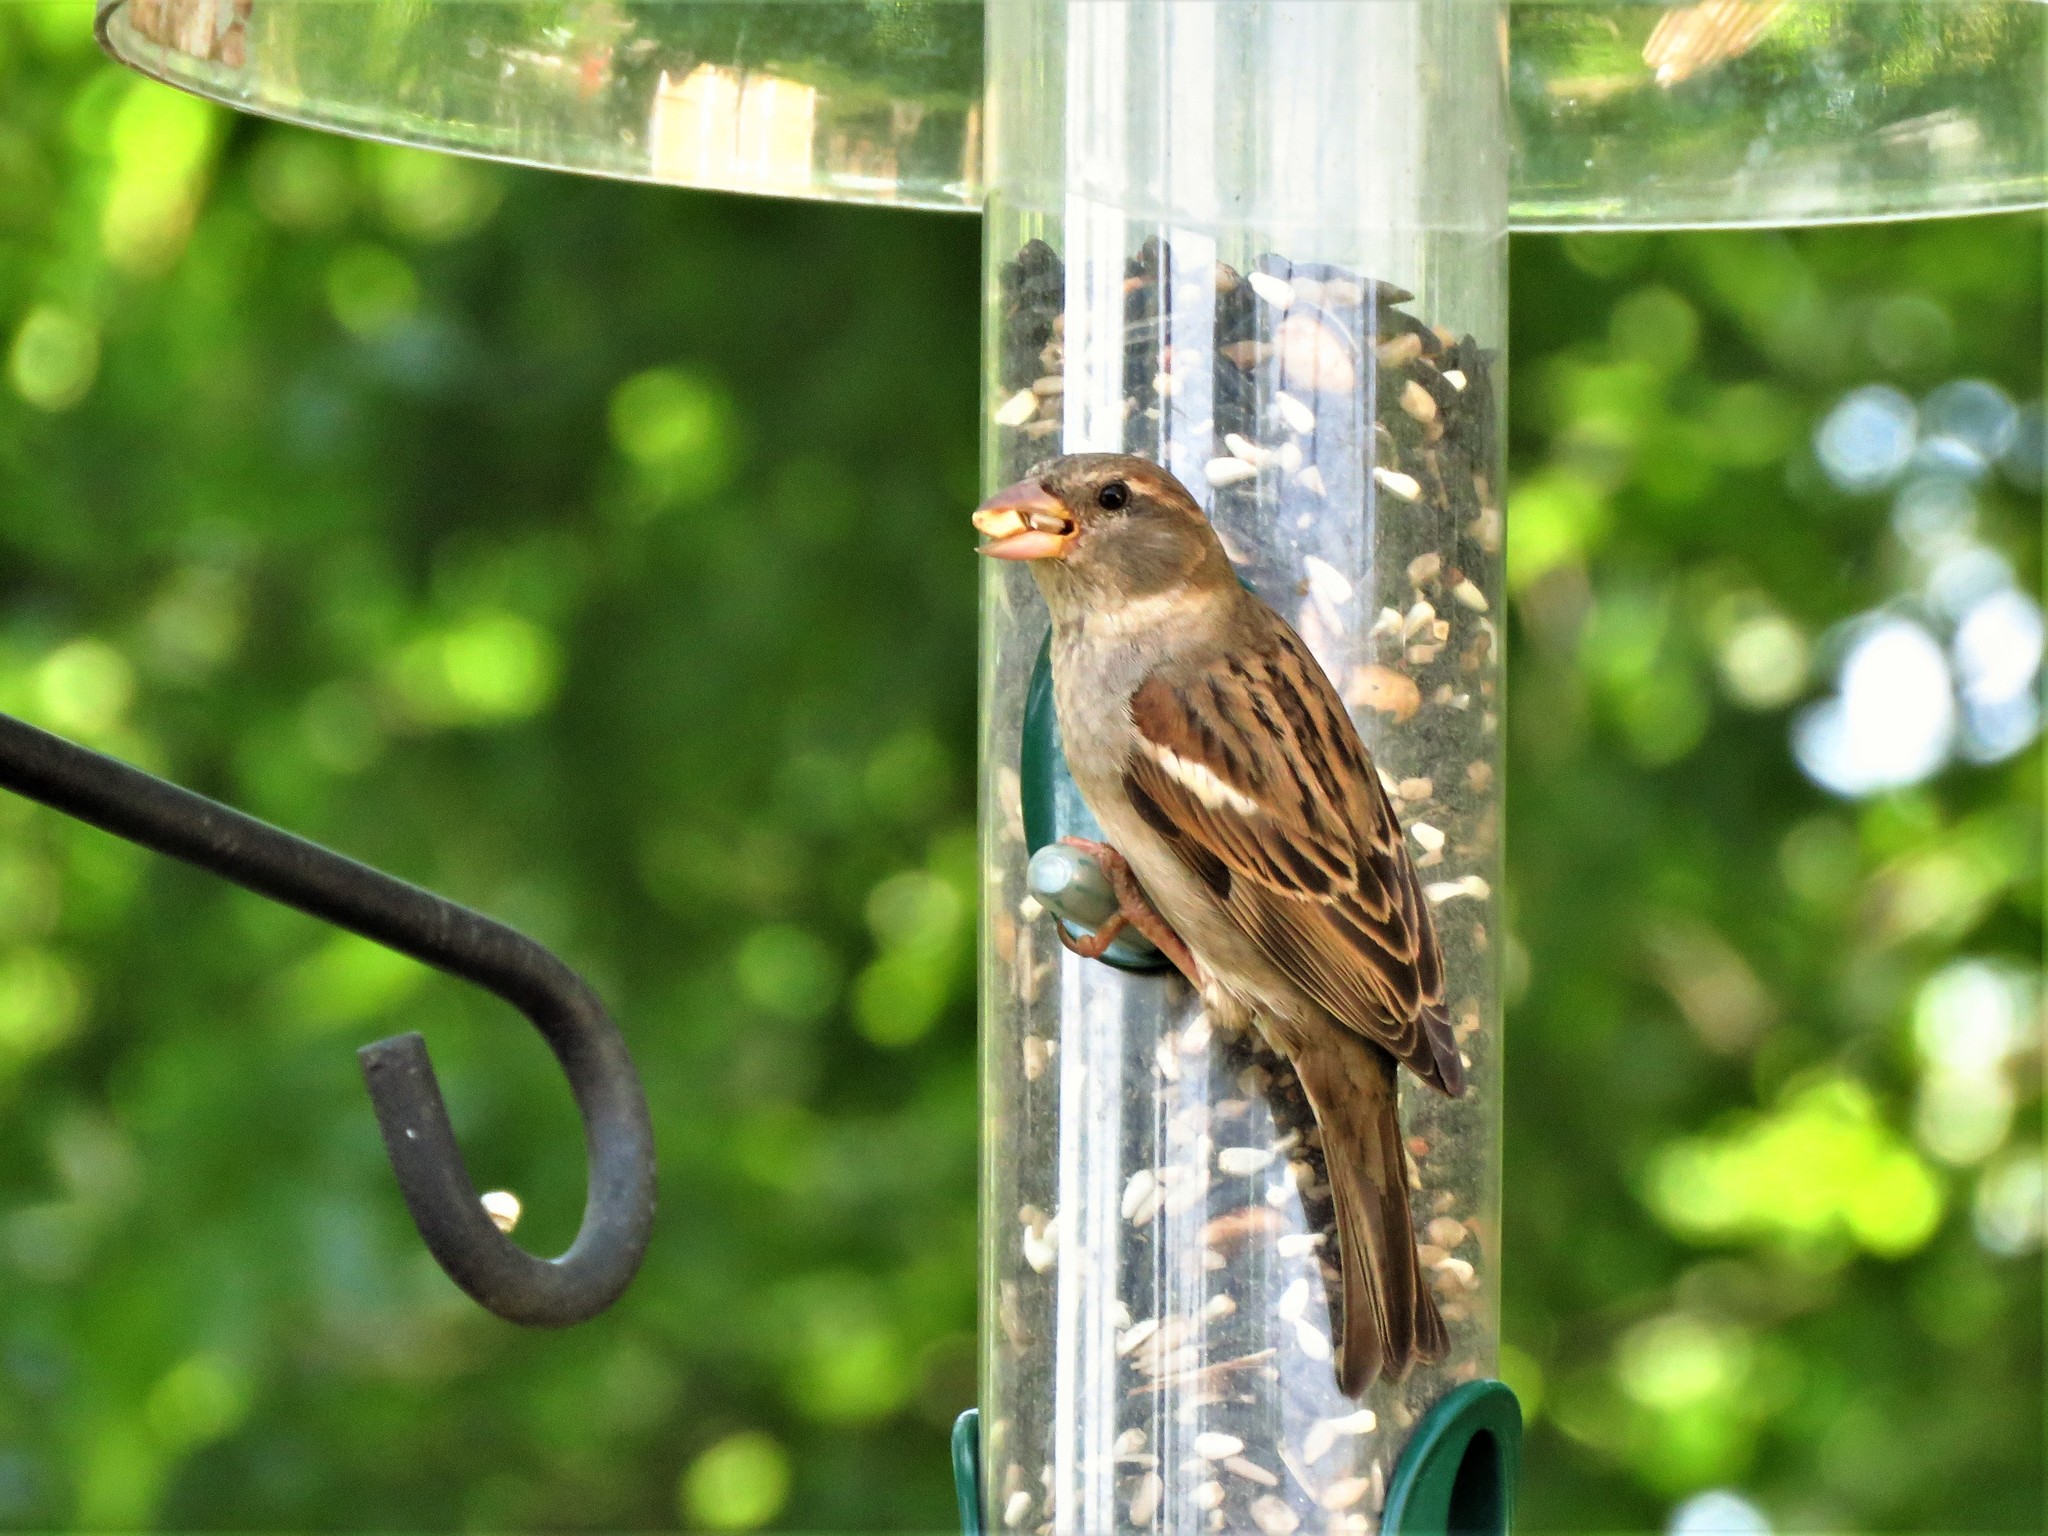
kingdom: Animalia
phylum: Chordata
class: Aves
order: Passeriformes
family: Passeridae
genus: Passer
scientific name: Passer domesticus
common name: House sparrow
